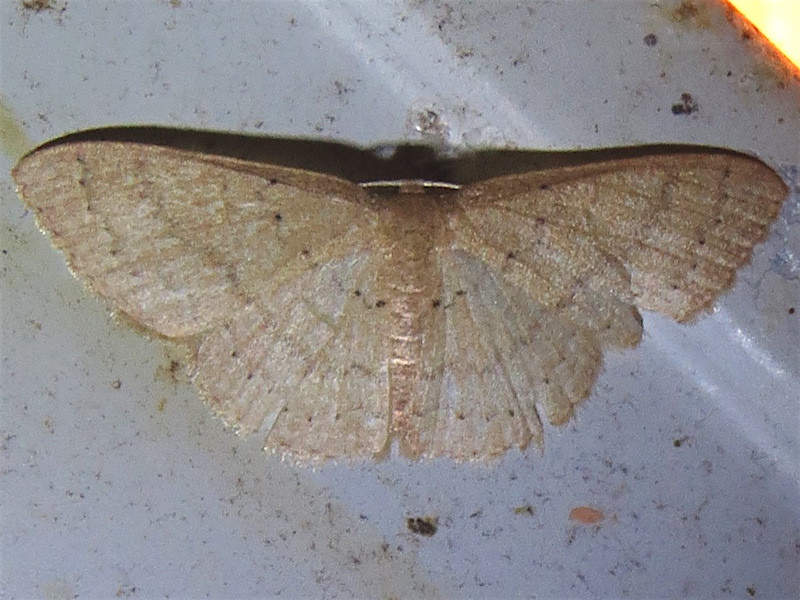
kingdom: Animalia
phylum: Arthropoda
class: Insecta
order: Lepidoptera
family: Geometridae
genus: Pleuroprucha
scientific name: Pleuroprucha insulsaria
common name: Common tan wave
